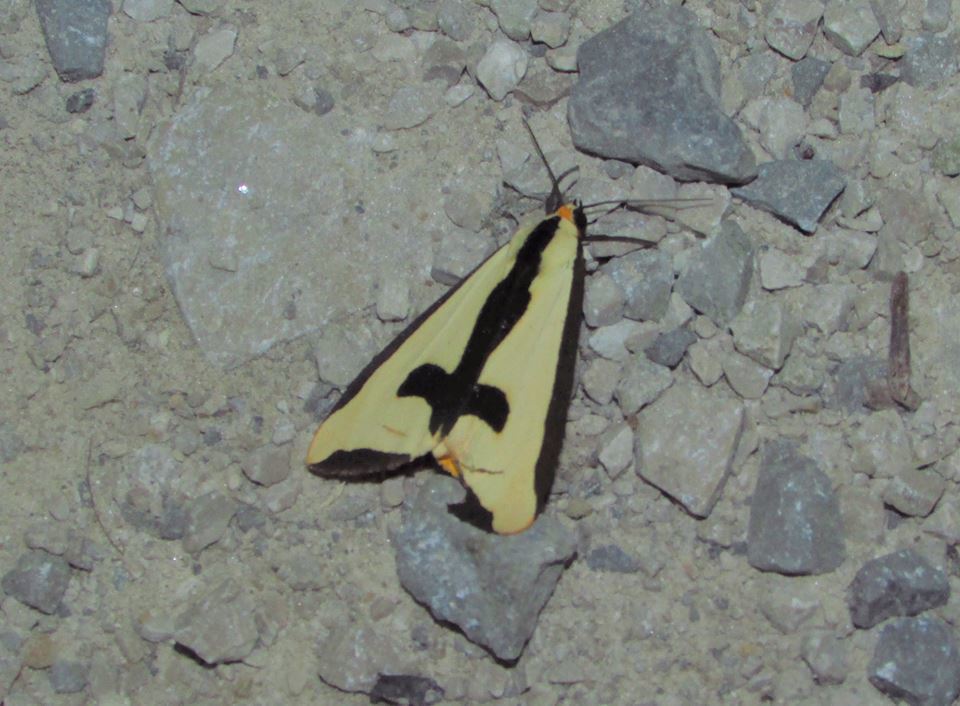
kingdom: Animalia
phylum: Arthropoda
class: Insecta
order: Lepidoptera
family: Erebidae
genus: Haploa
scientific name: Haploa clymene
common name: Clymene moth
